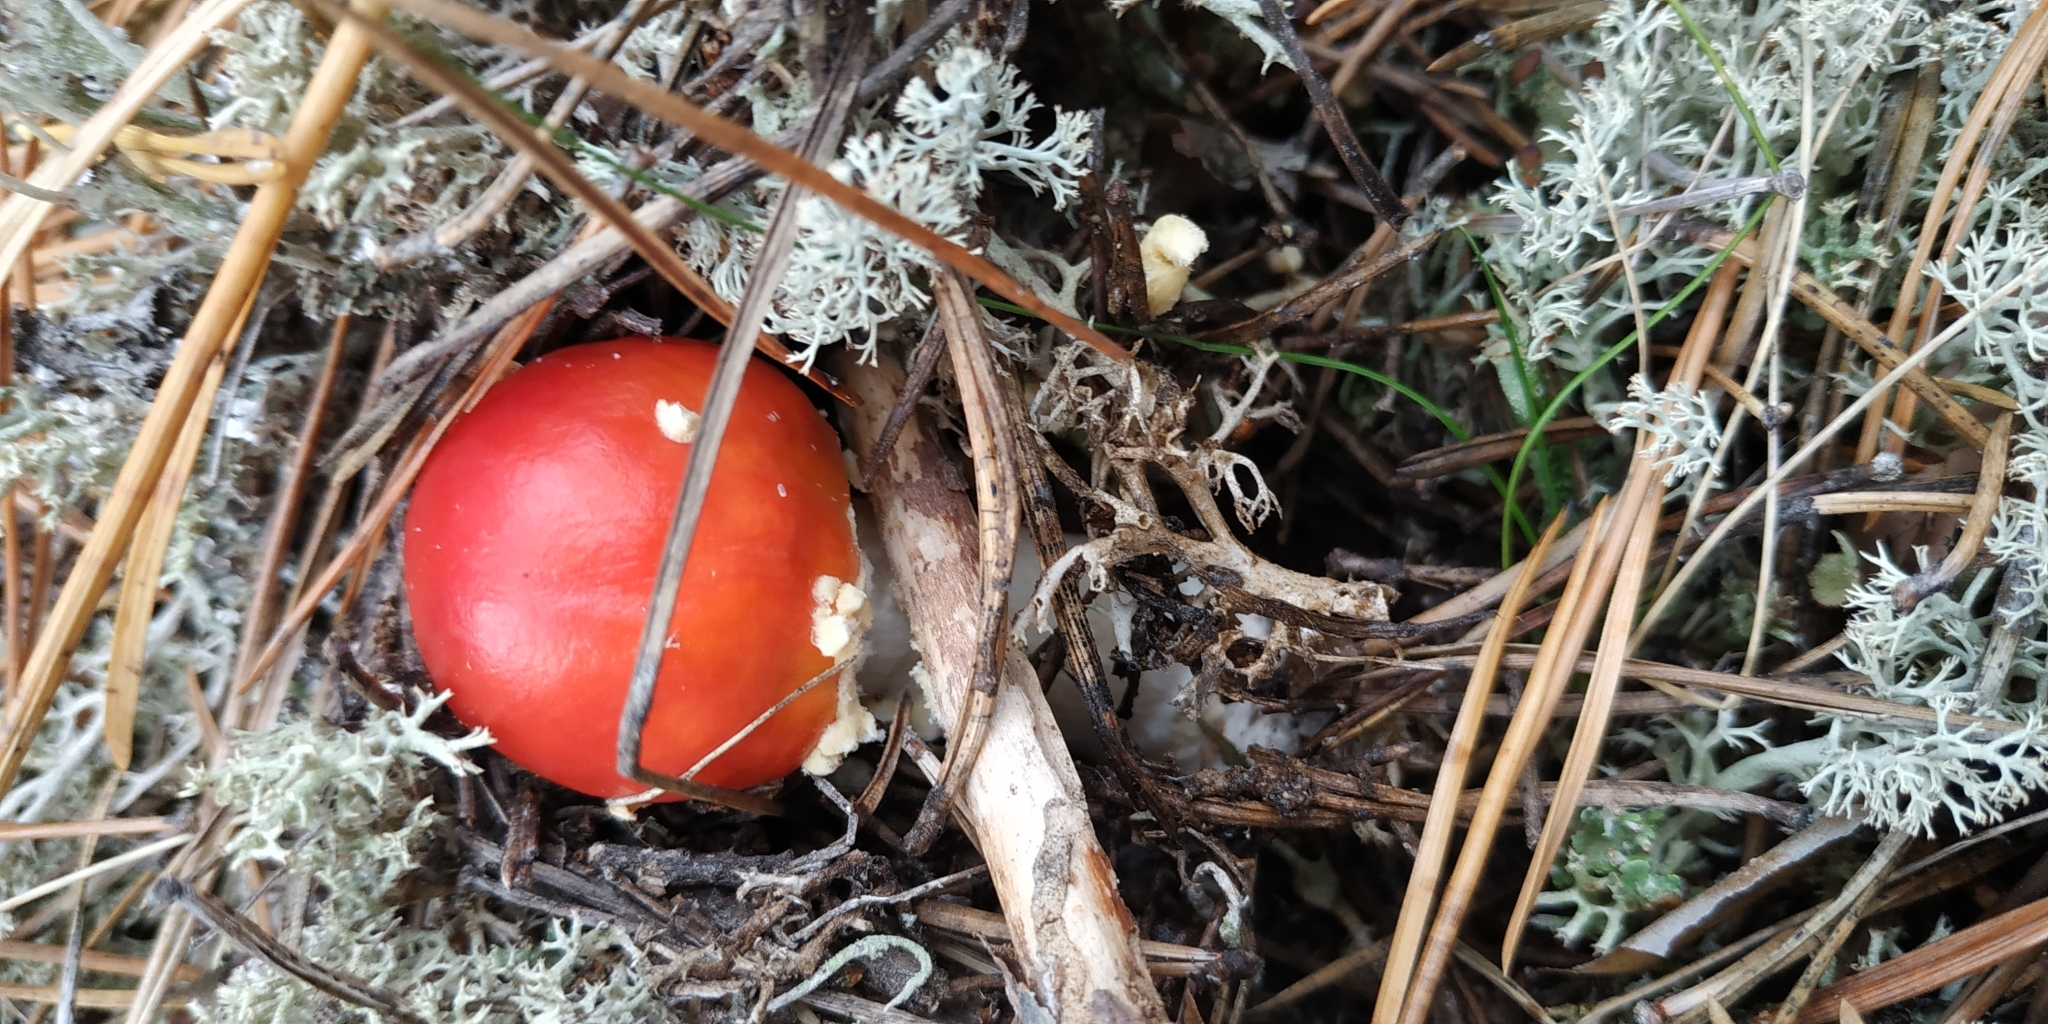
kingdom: Fungi
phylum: Basidiomycota
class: Agaricomycetes
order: Agaricales
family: Amanitaceae
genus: Amanita
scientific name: Amanita muscaria
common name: Fly agaric
